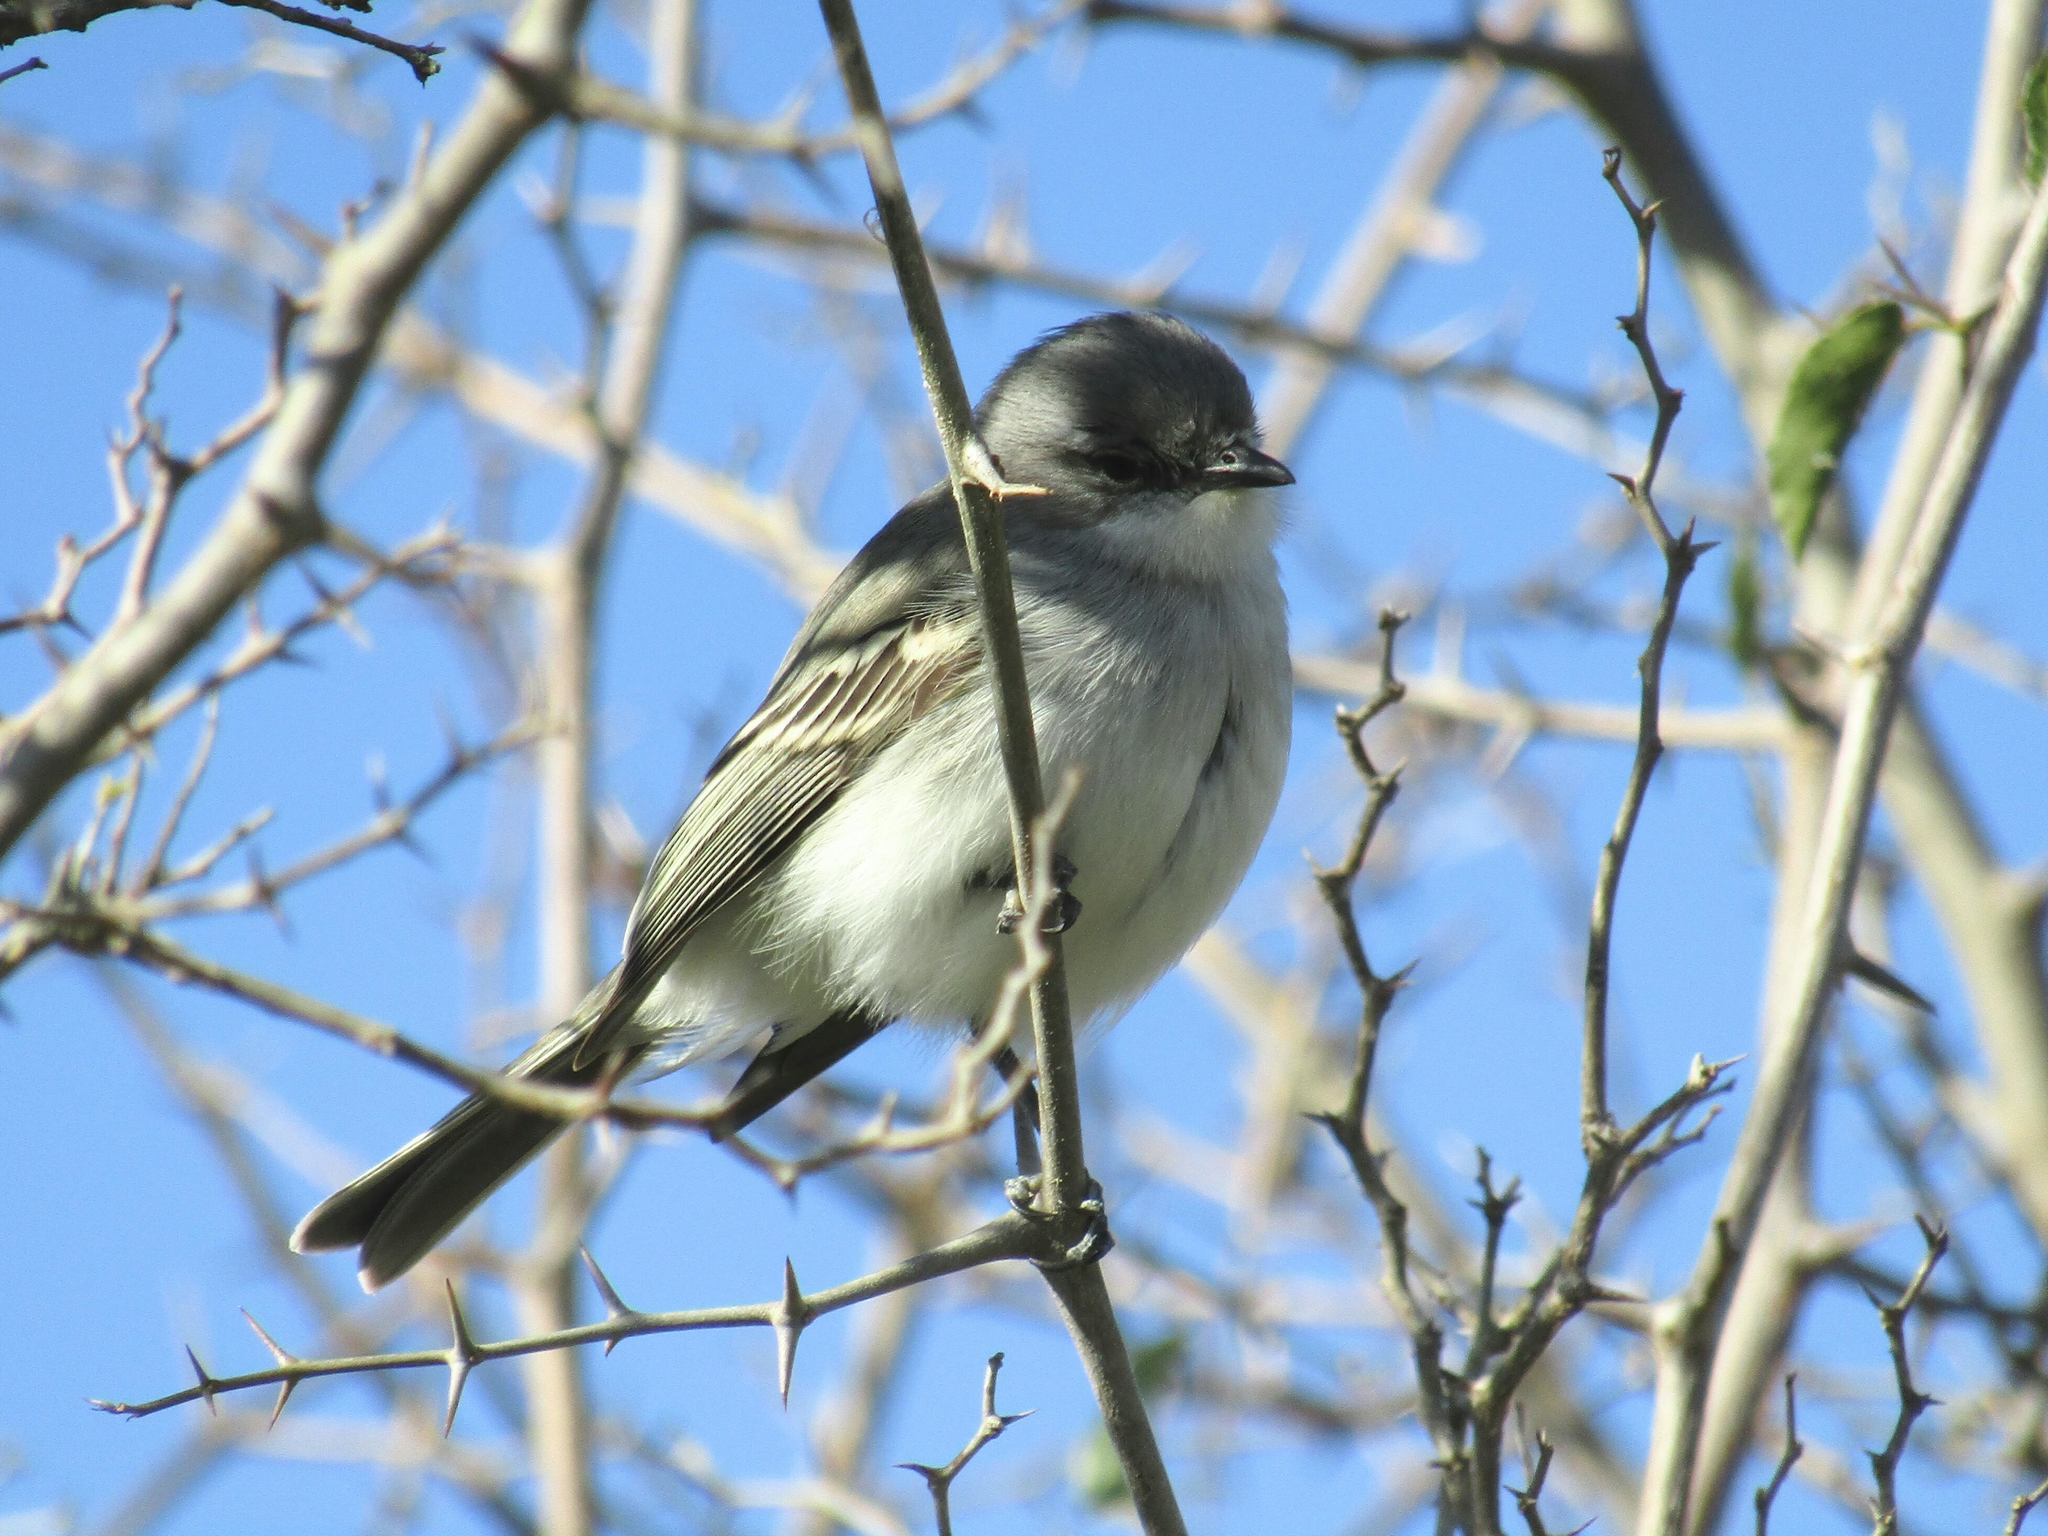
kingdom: Animalia
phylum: Chordata
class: Aves
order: Passeriformes
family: Tyrannidae
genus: Suiriri
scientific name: Suiriri suiriri
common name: Suiriri flycatcher
